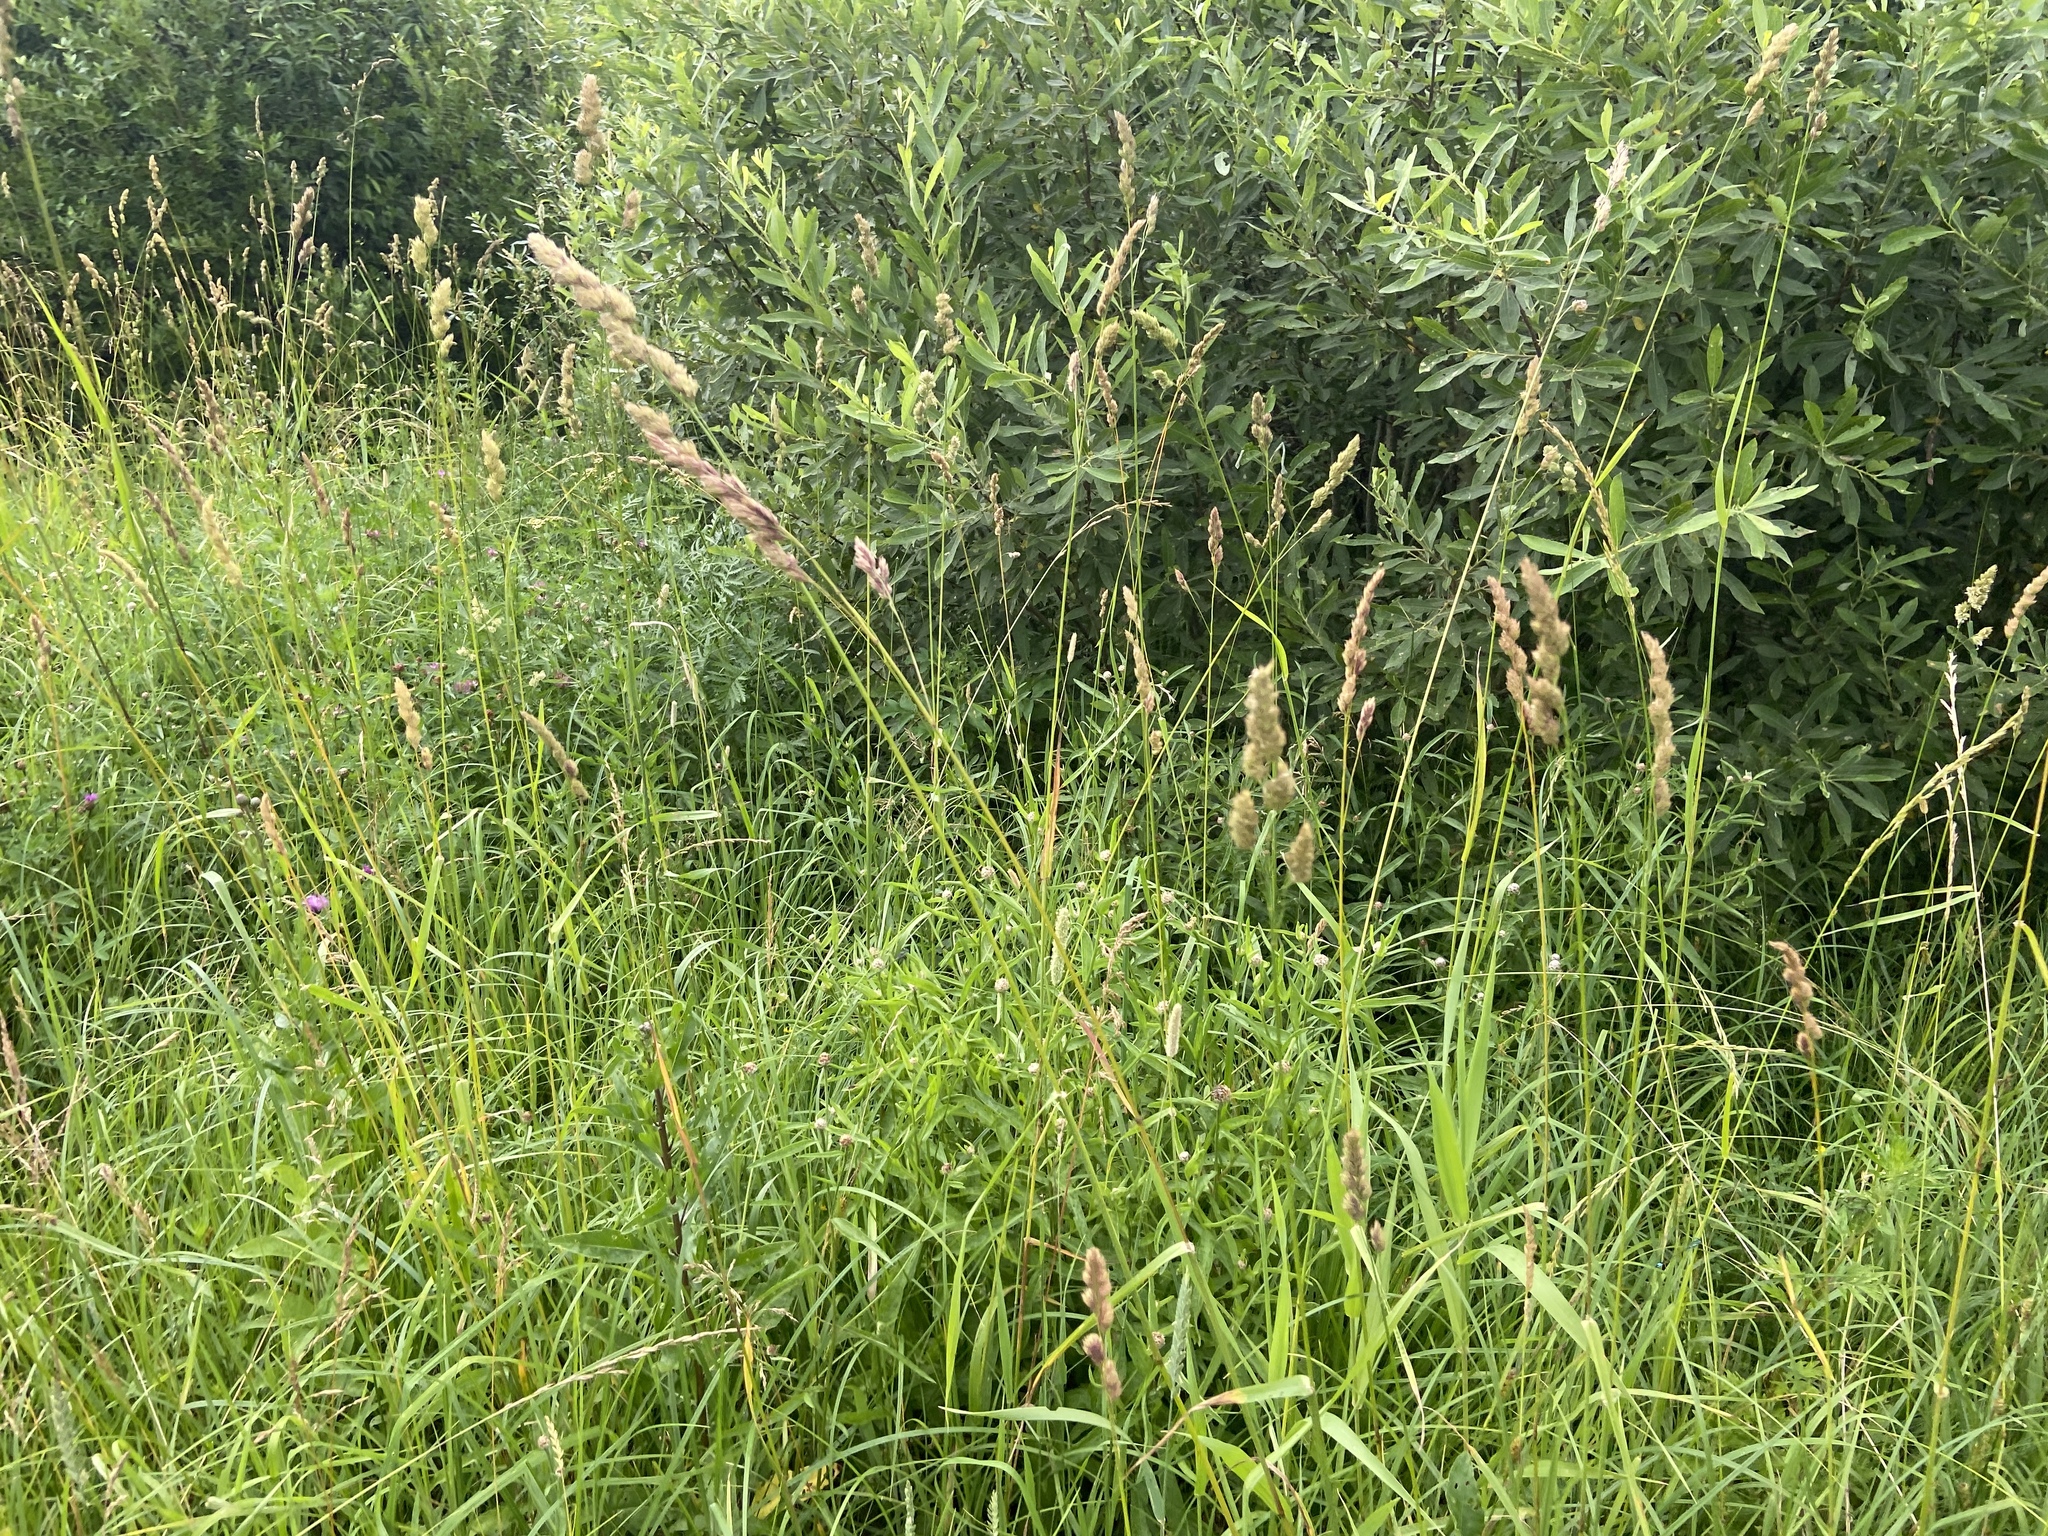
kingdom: Plantae
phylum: Tracheophyta
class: Liliopsida
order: Poales
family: Poaceae
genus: Dactylis
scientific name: Dactylis glomerata
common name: Orchardgrass
